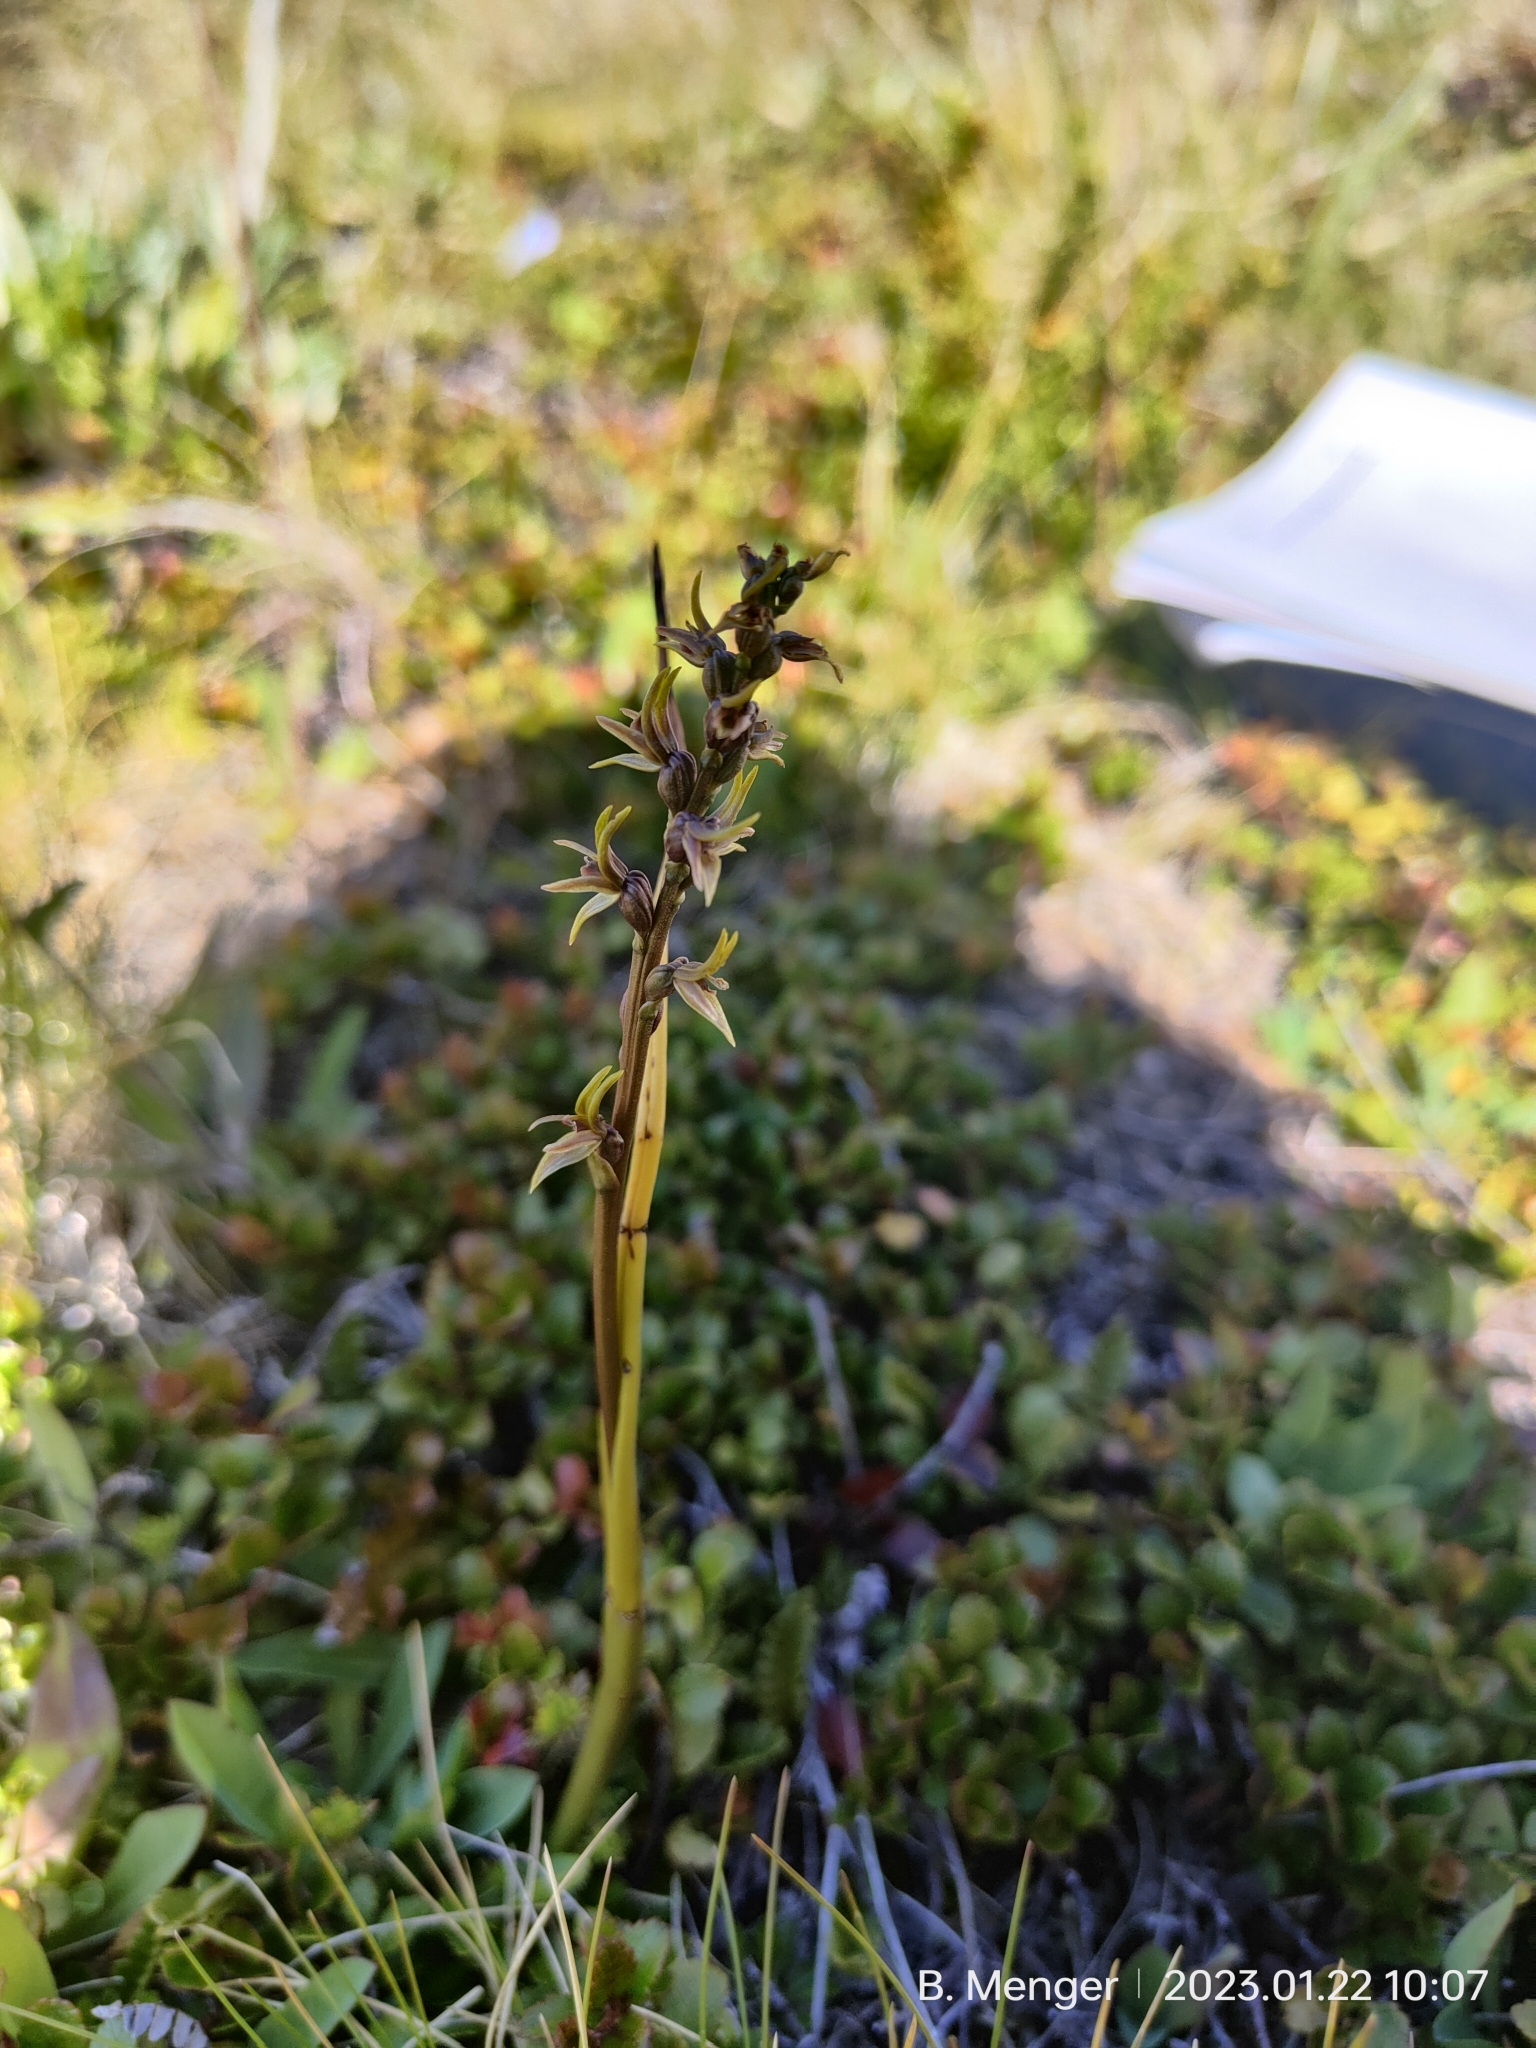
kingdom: Plantae
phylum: Tracheophyta
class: Liliopsida
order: Asparagales
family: Orchidaceae
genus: Prasophyllum
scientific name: Prasophyllum colensoi
